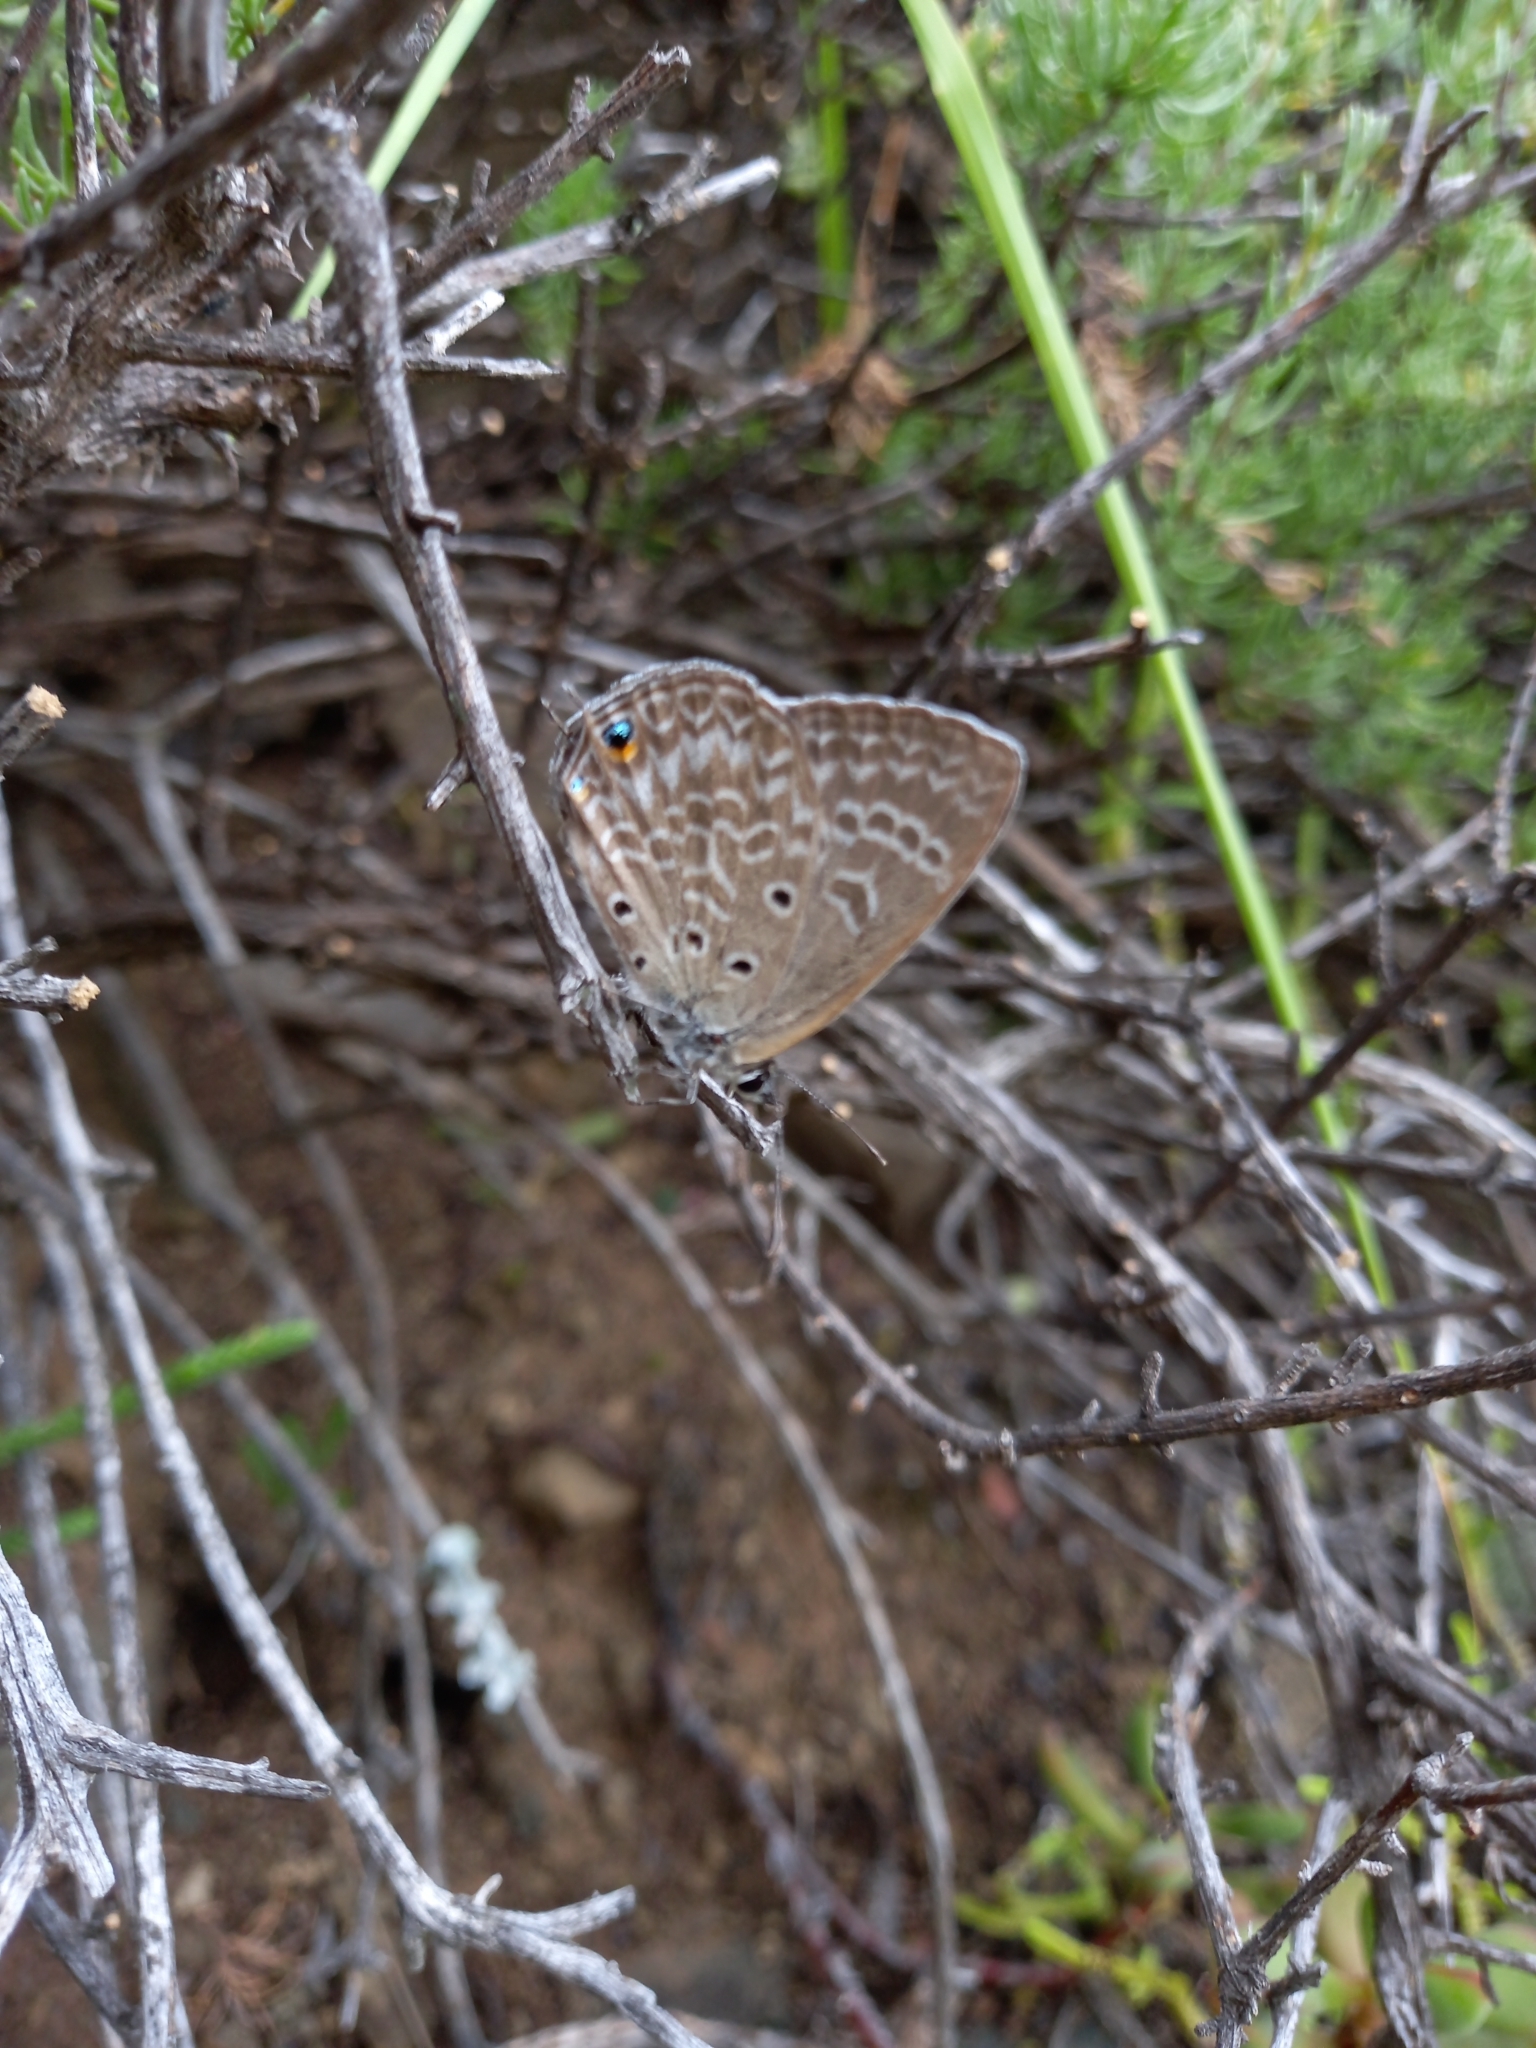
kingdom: Animalia
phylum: Arthropoda
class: Insecta
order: Lepidoptera
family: Lycaenidae
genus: Anthene
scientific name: Anthene amarah
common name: Black-striped hairtail
